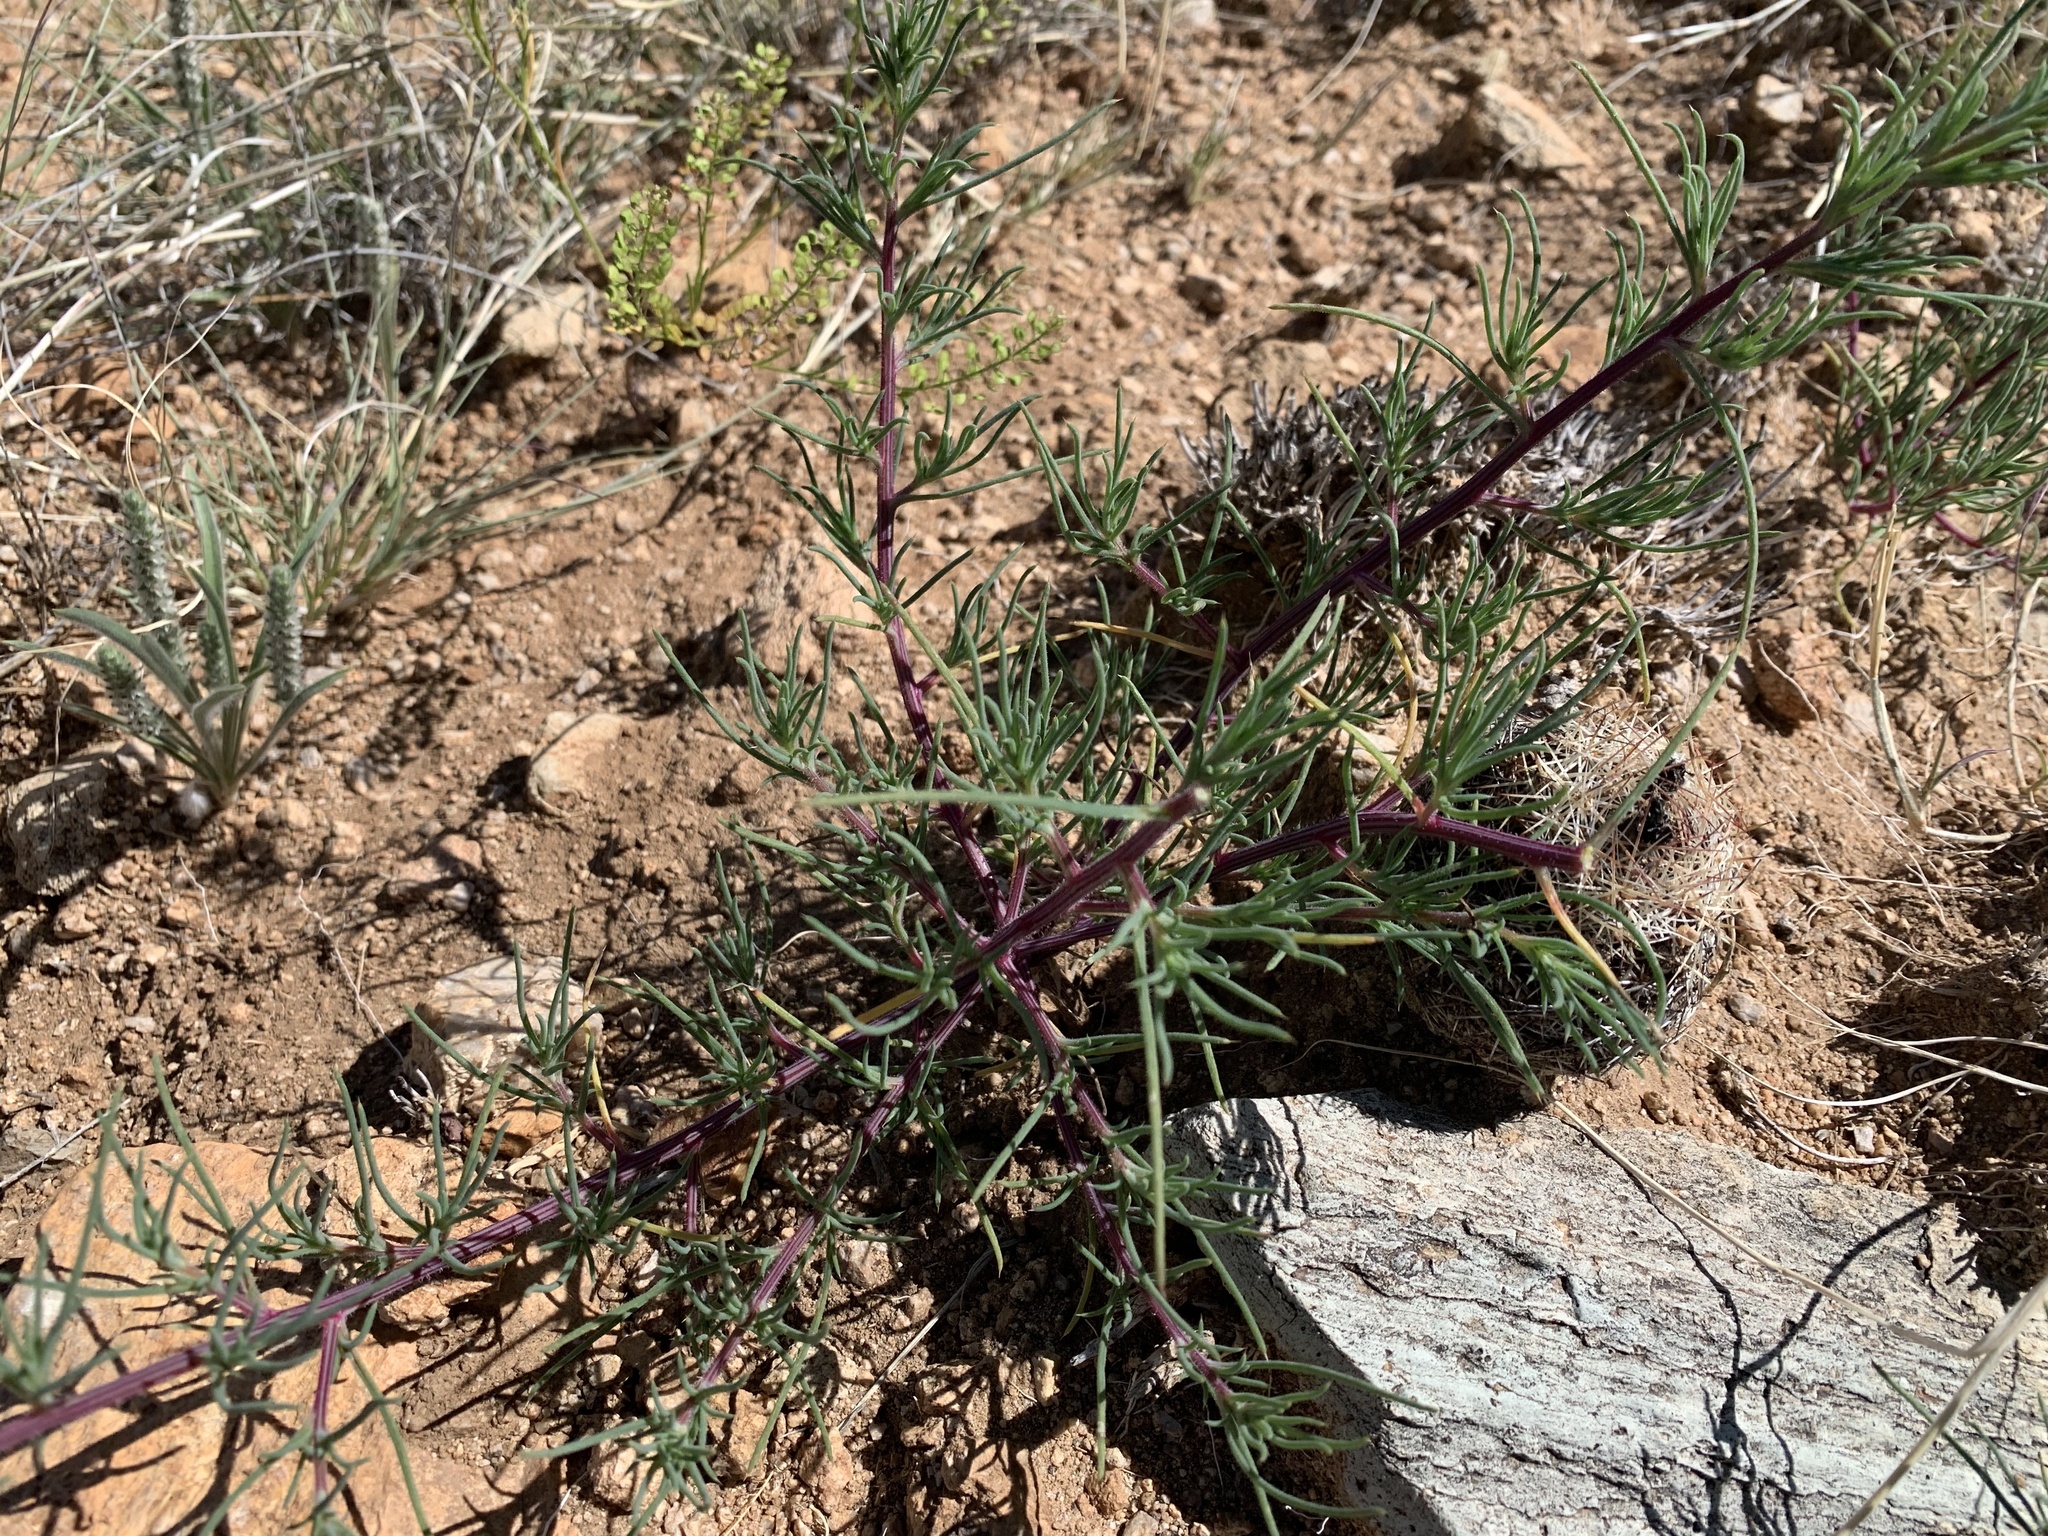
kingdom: Plantae
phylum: Tracheophyta
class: Magnoliopsida
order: Caryophyllales
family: Amaranthaceae
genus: Salsola
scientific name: Salsola tragus
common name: Prickly russian thistle
